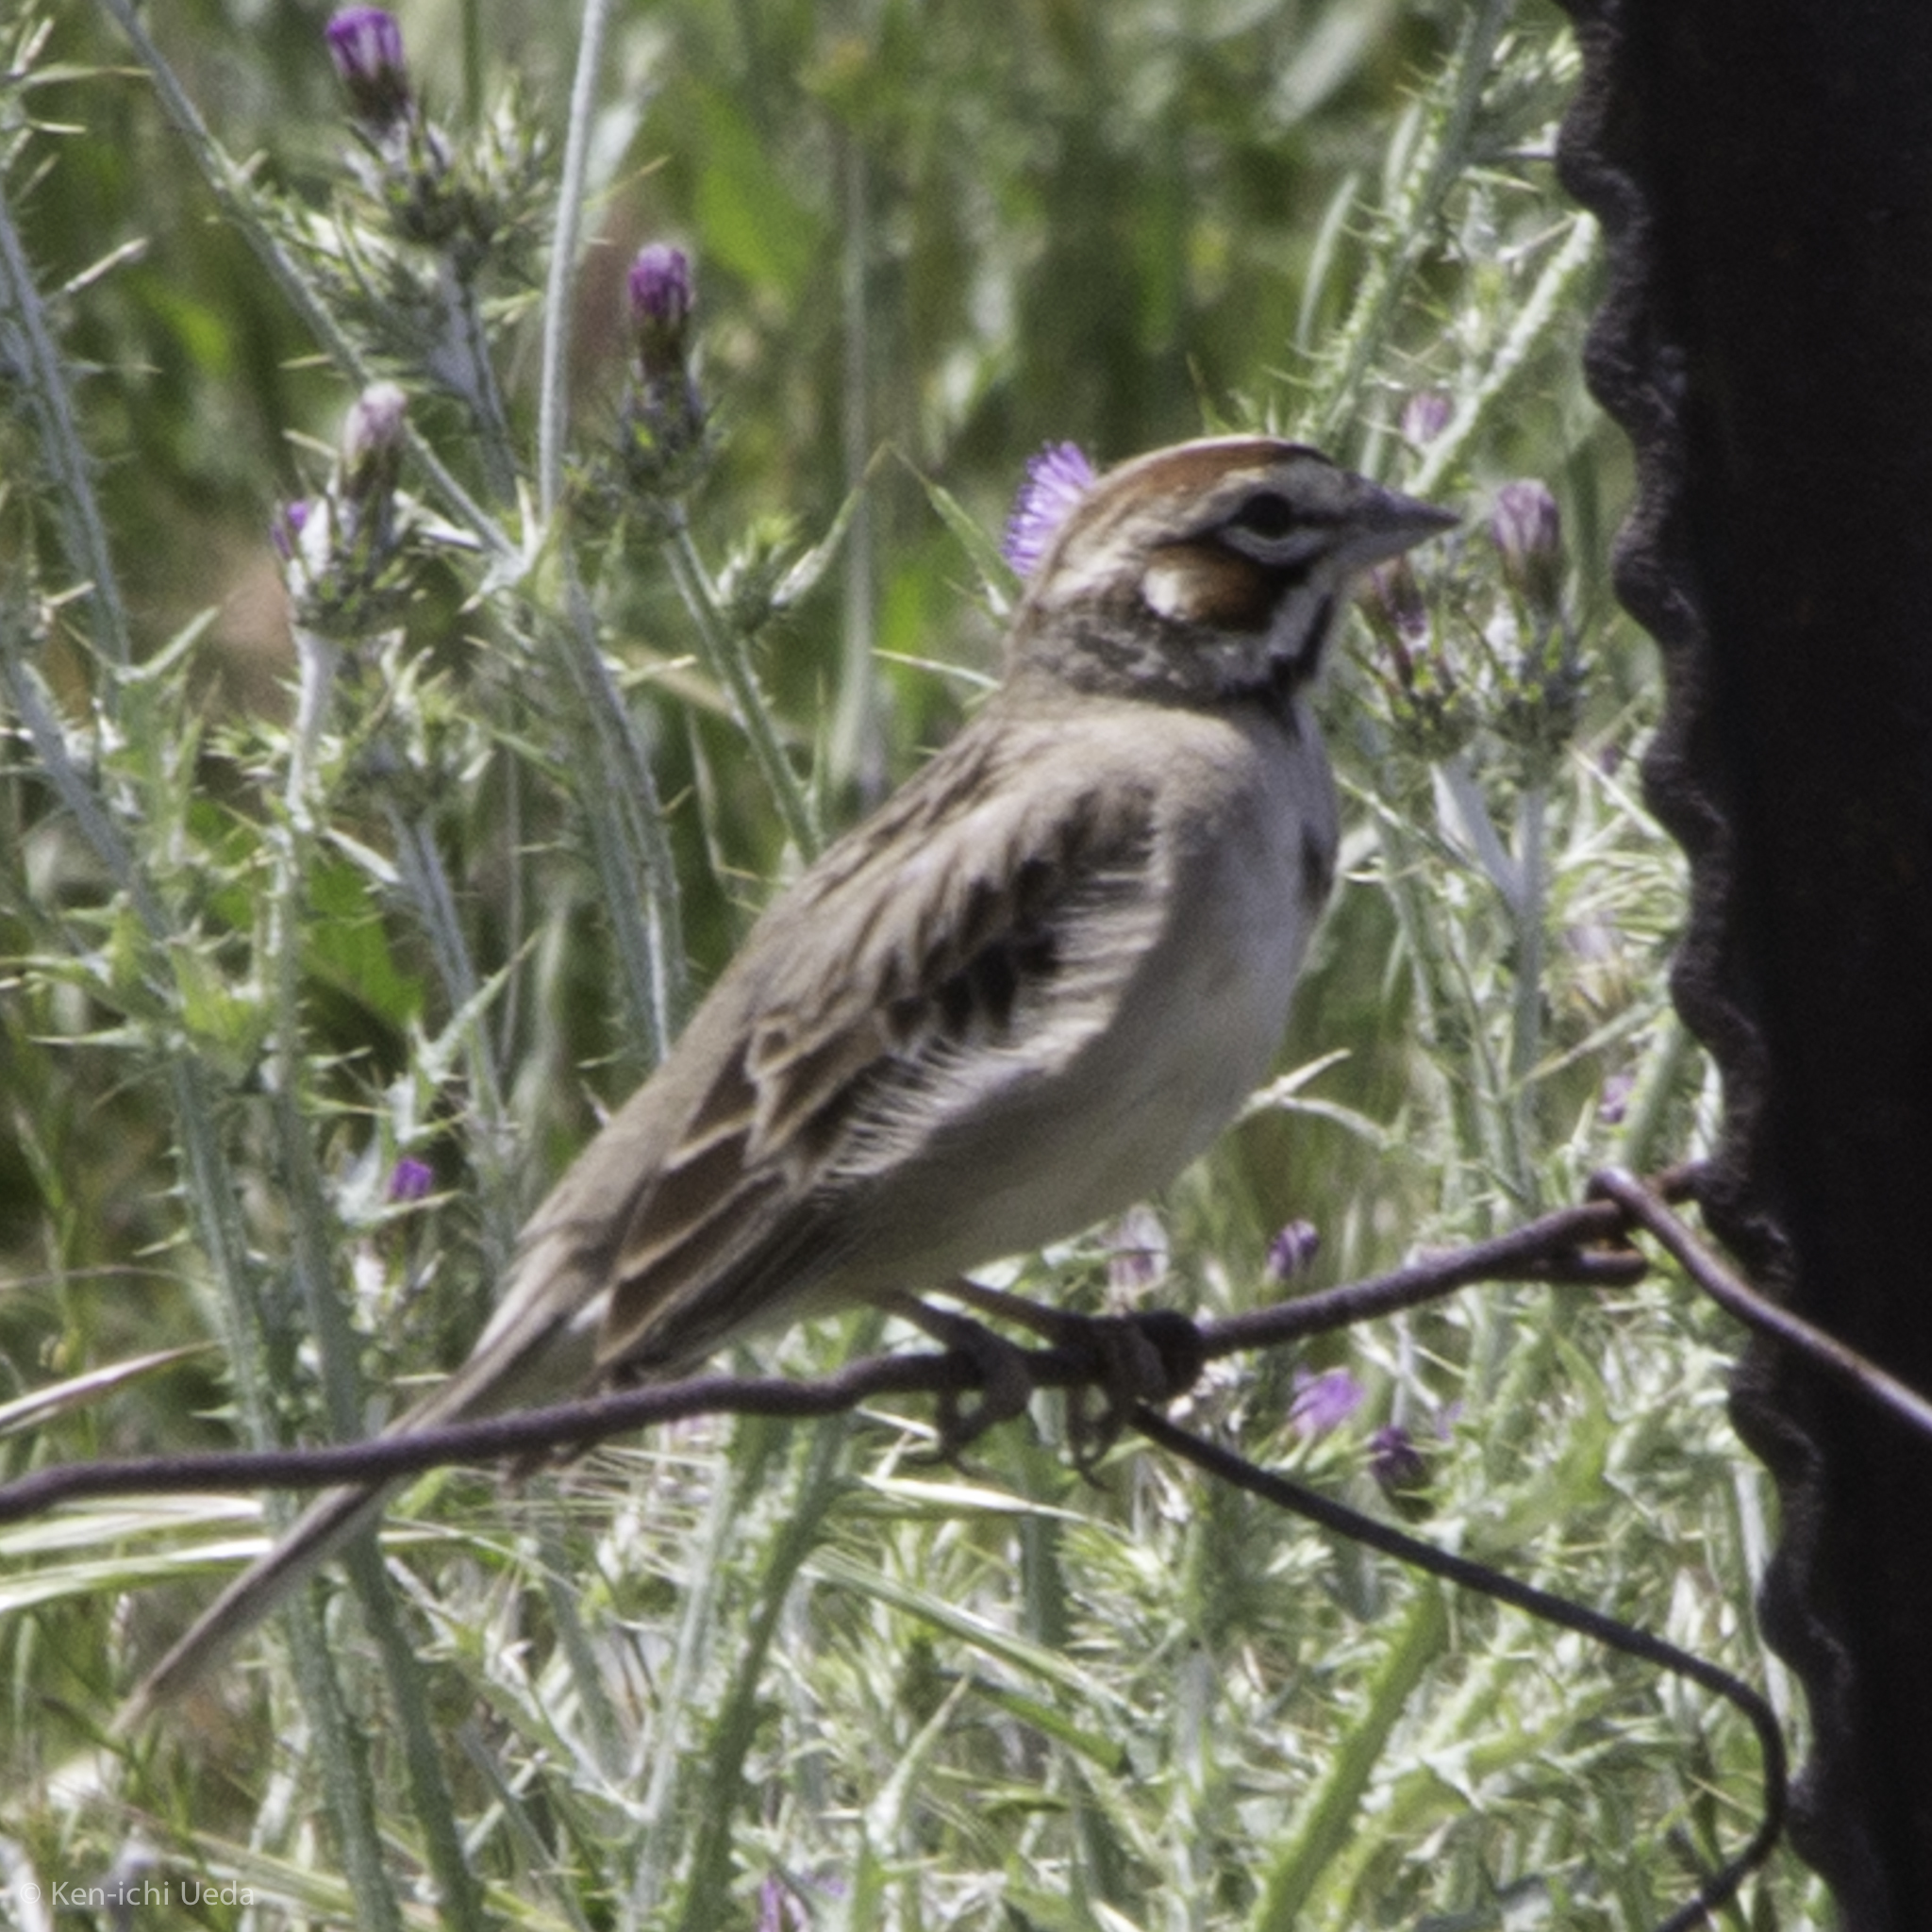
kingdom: Animalia
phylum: Chordata
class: Aves
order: Passeriformes
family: Passerellidae
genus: Chondestes
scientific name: Chondestes grammacus
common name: Lark sparrow
